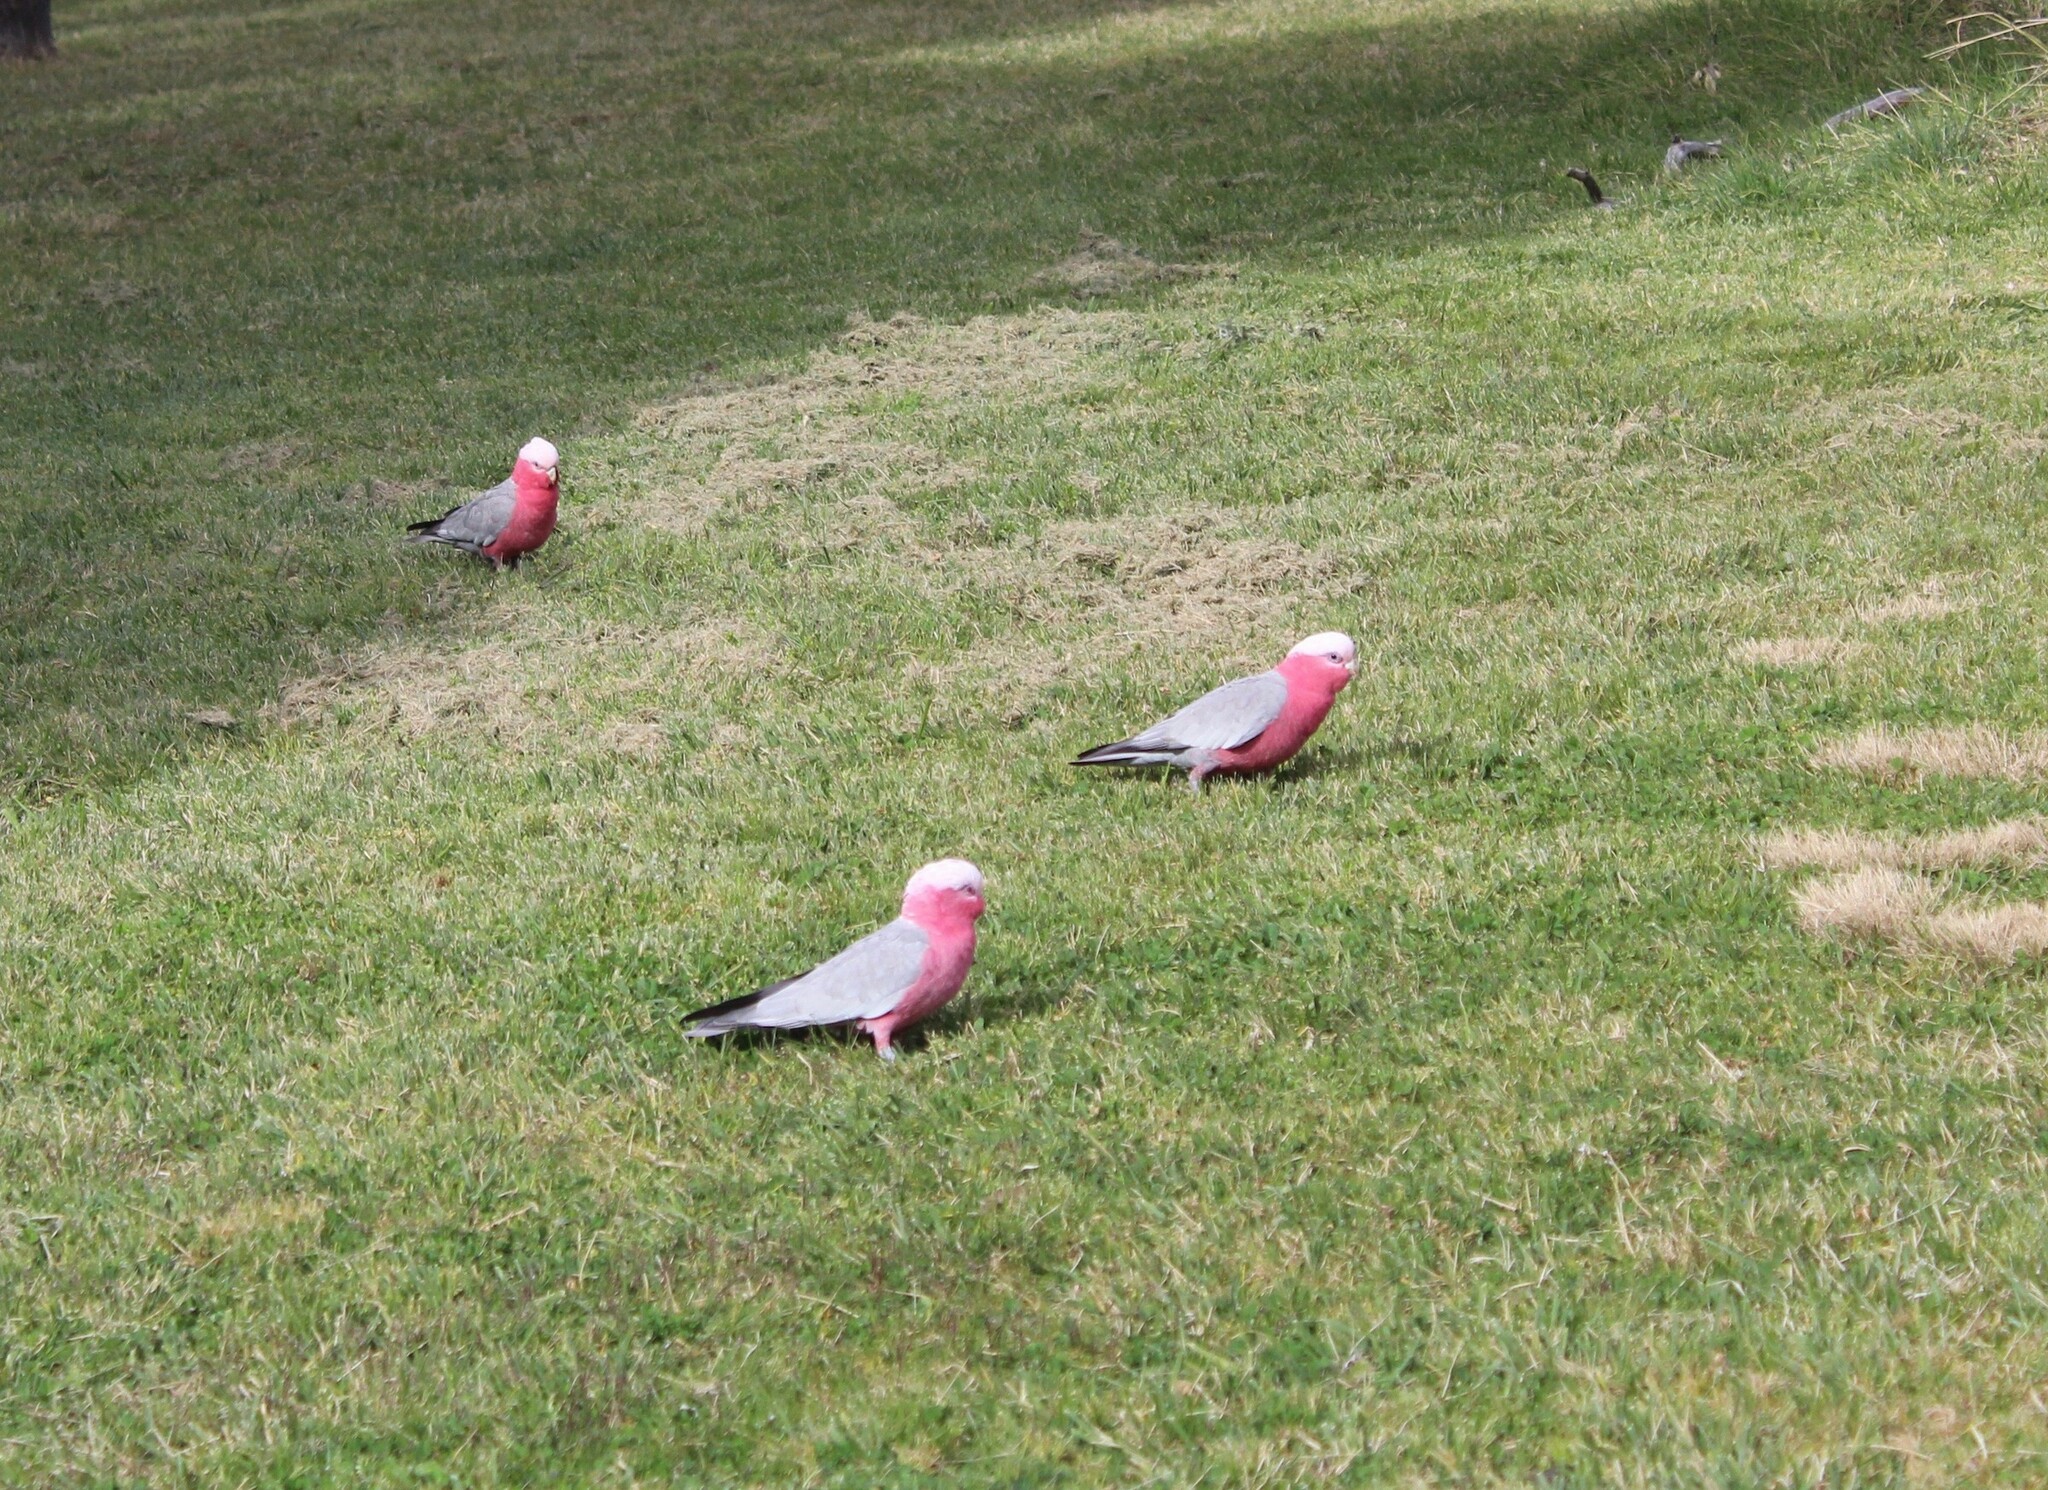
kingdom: Animalia
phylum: Chordata
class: Aves
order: Psittaciformes
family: Psittacidae
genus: Eolophus
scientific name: Eolophus roseicapilla
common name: Galah
